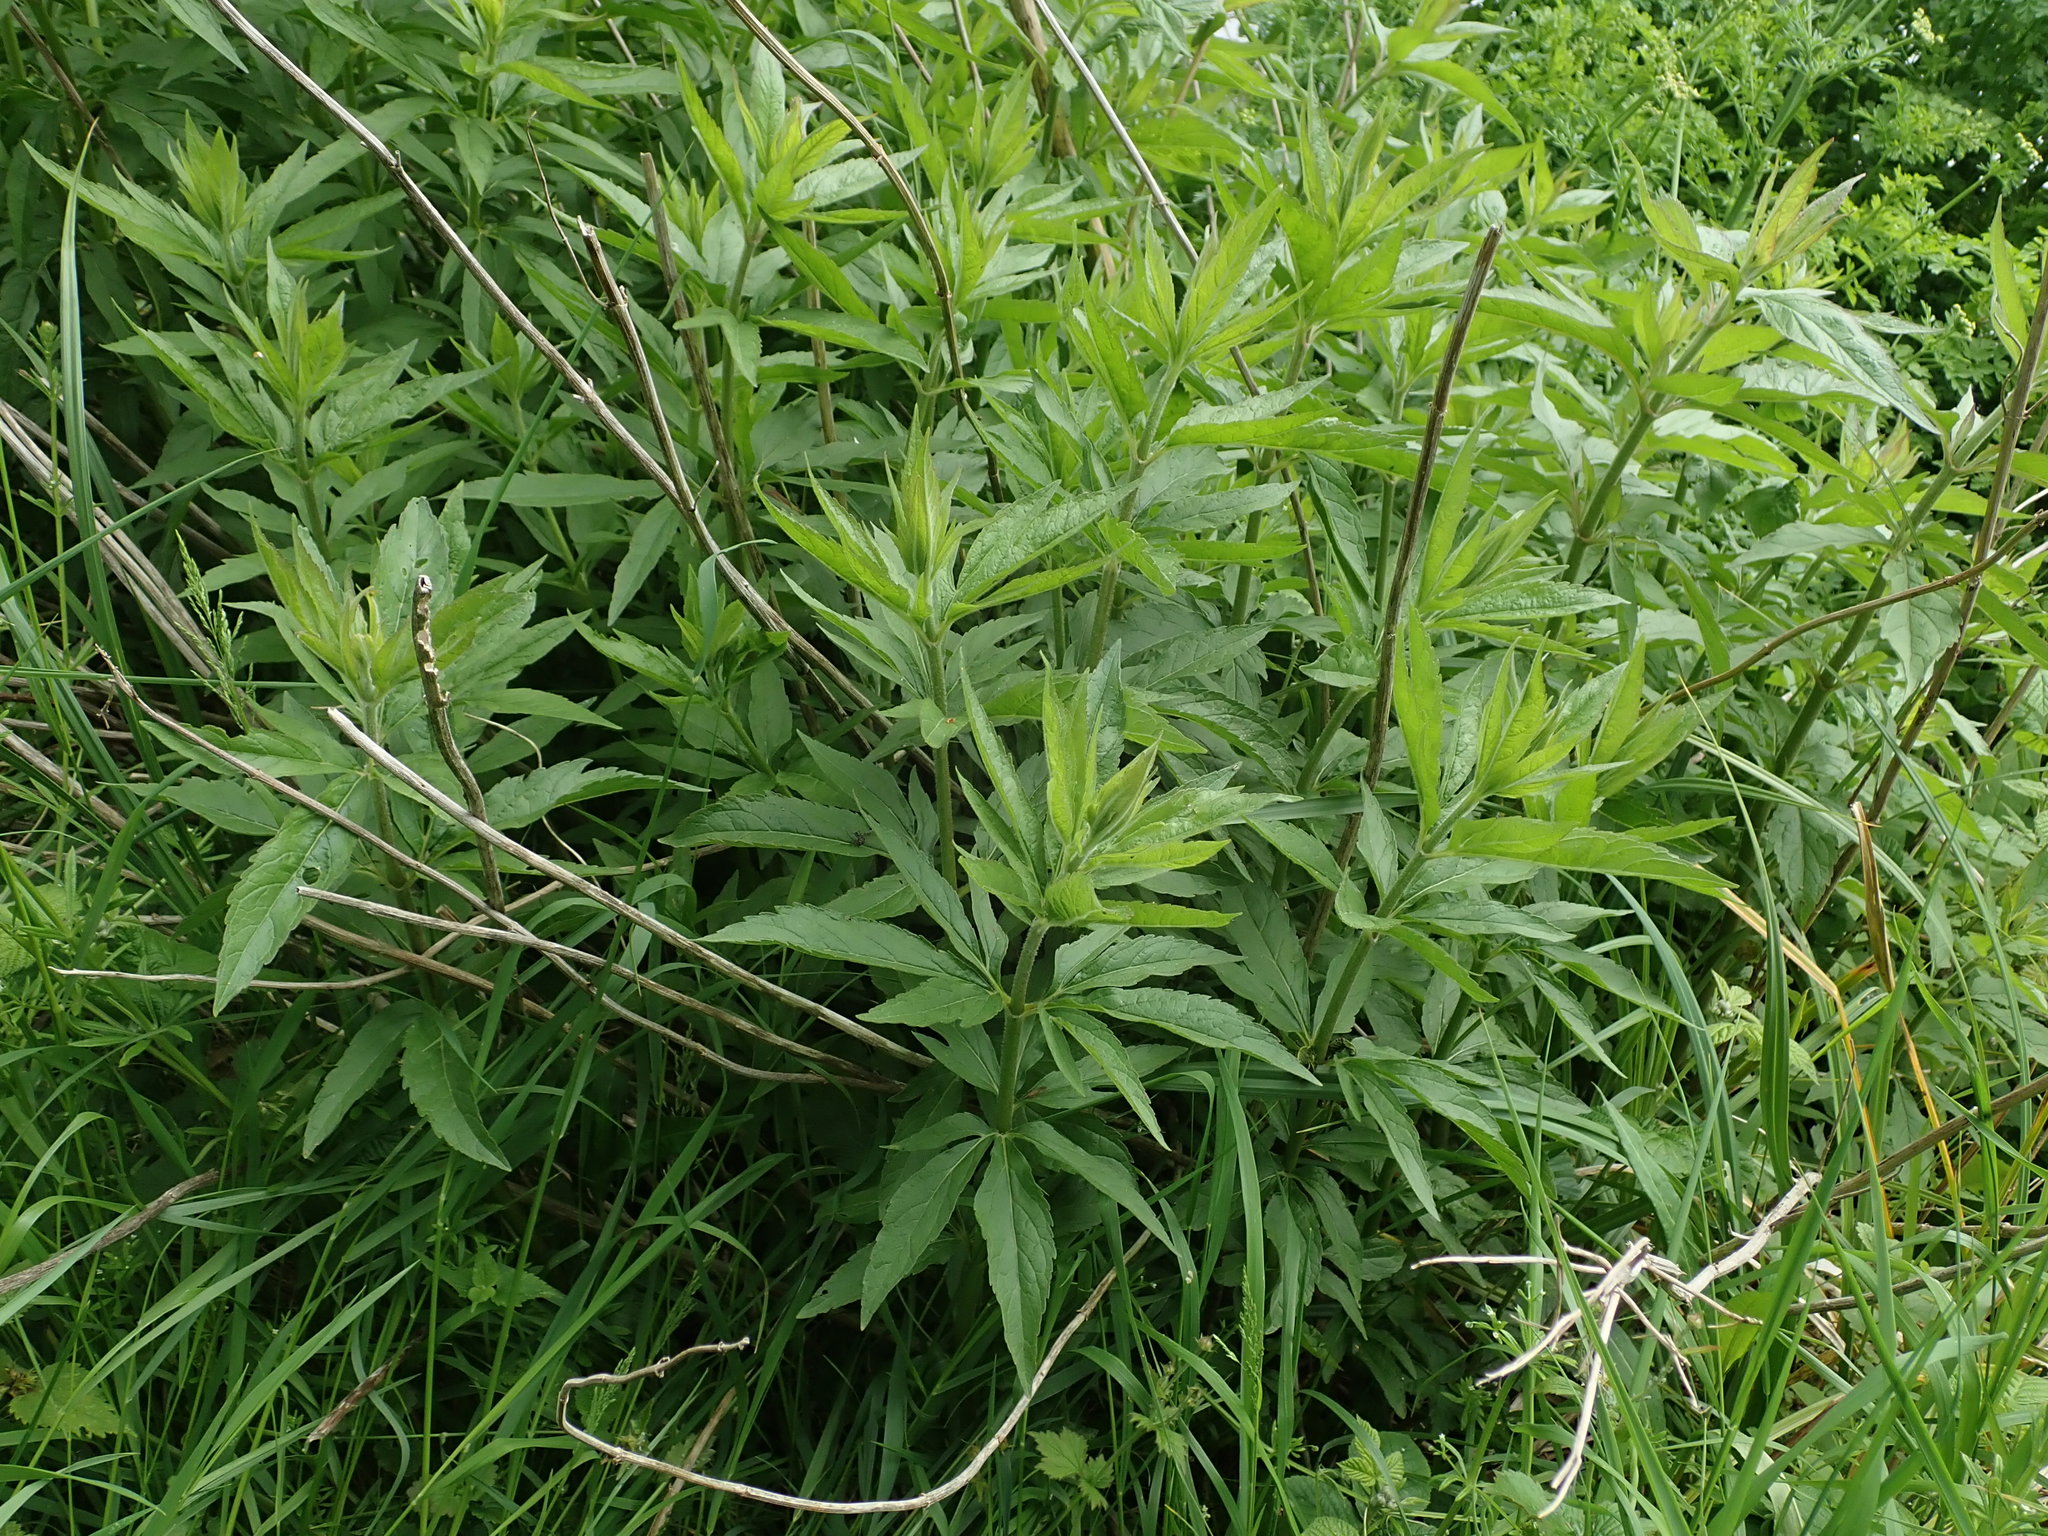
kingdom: Plantae
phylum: Tracheophyta
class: Magnoliopsida
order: Asterales
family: Asteraceae
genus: Eupatorium
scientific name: Eupatorium cannabinum
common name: Hemp-agrimony
